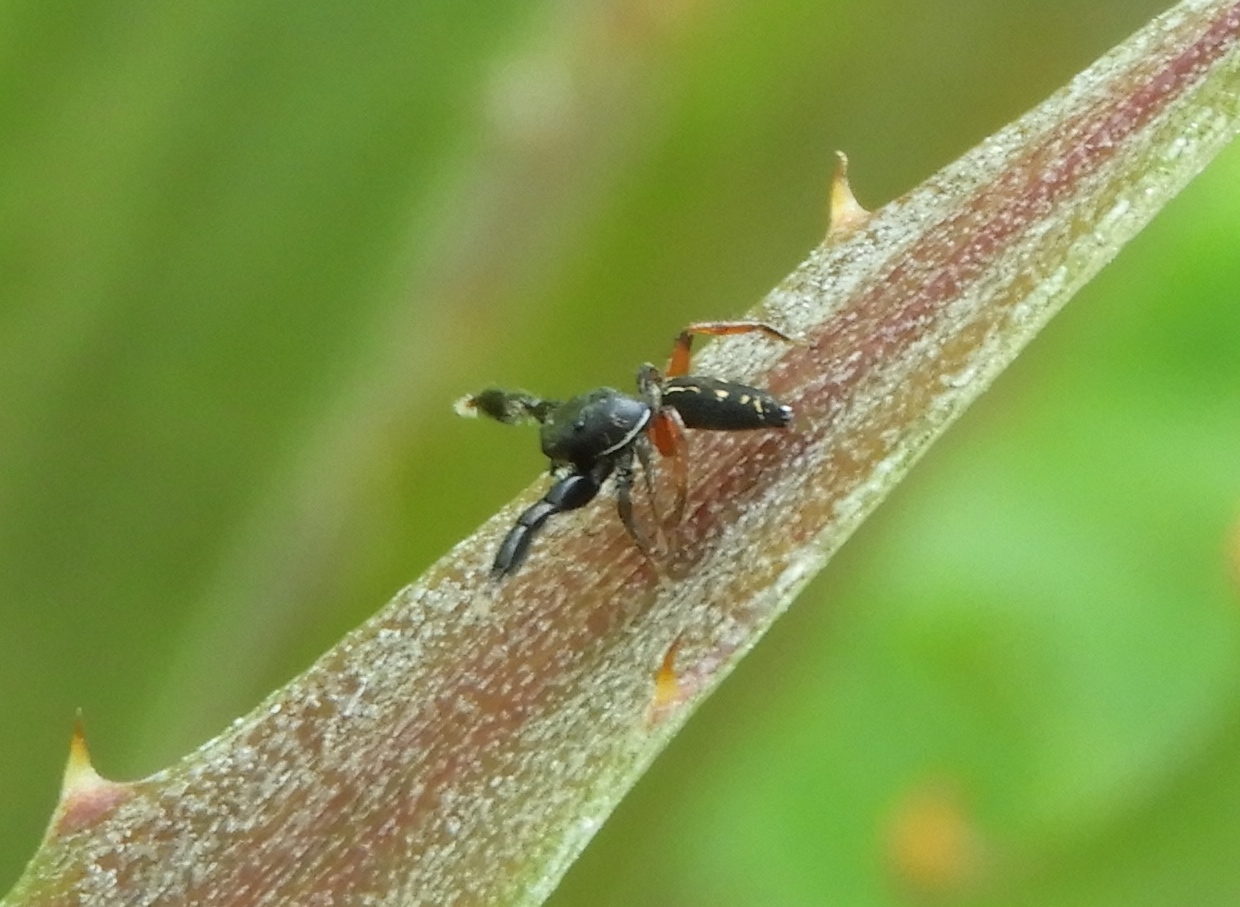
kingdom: Animalia
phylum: Arthropoda
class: Arachnida
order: Araneae
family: Salticidae
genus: Metacyrba
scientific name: Metacyrba punctata
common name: Jumping spiders
